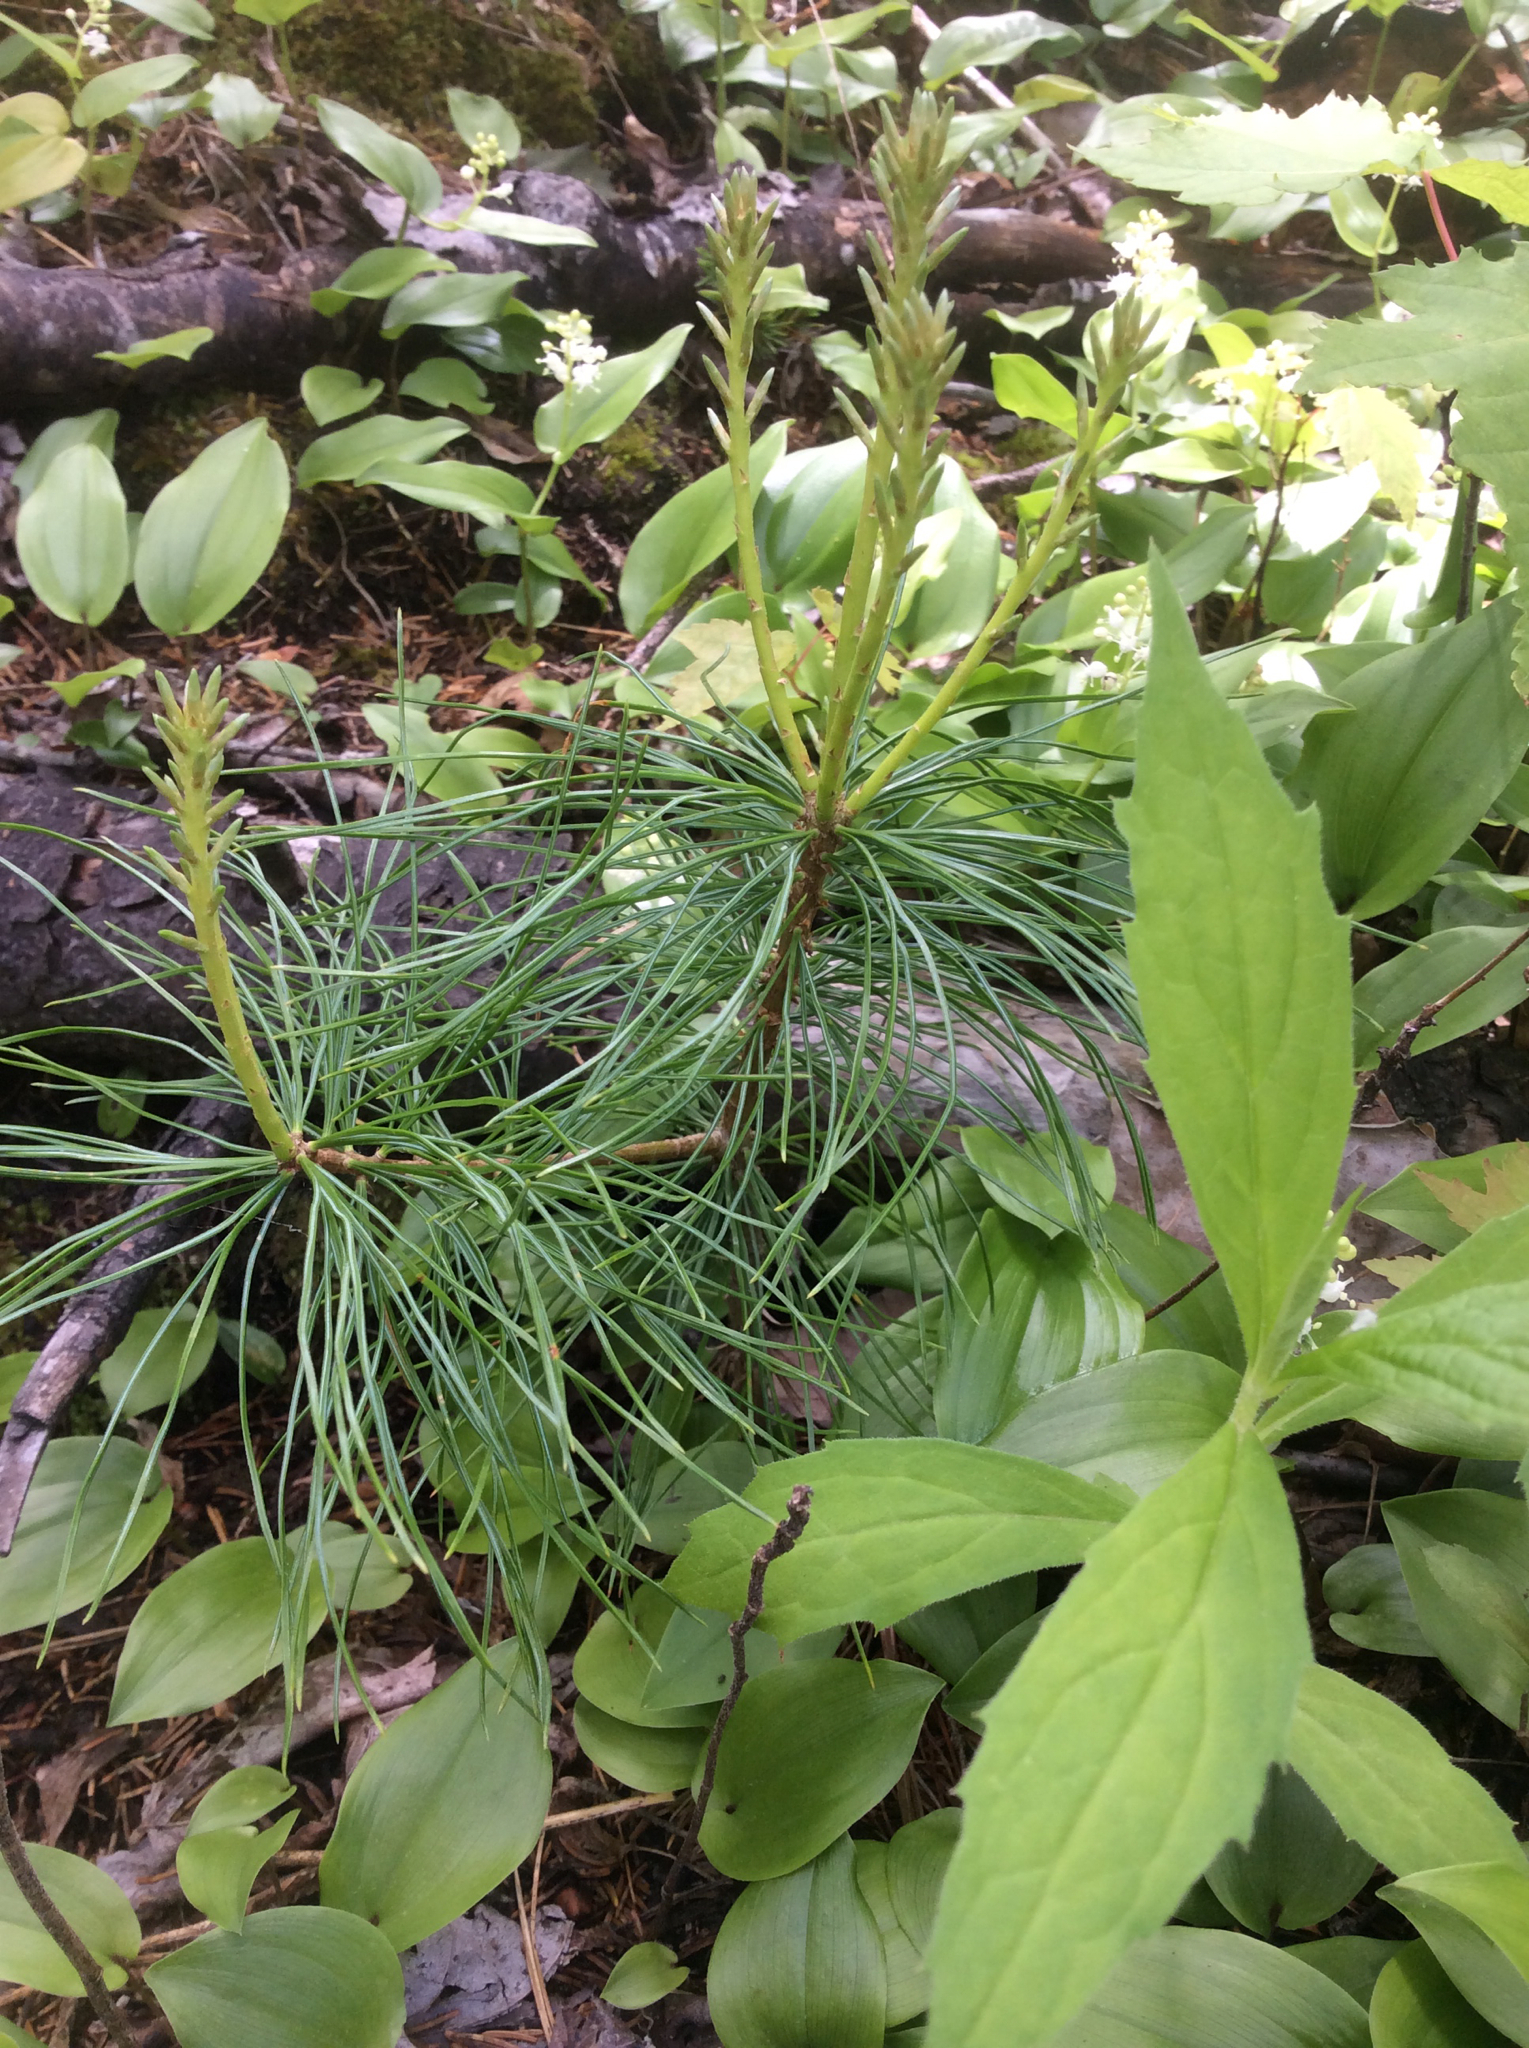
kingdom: Plantae
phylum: Tracheophyta
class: Pinopsida
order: Pinales
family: Pinaceae
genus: Pinus
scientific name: Pinus strobus
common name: Weymouth pine
